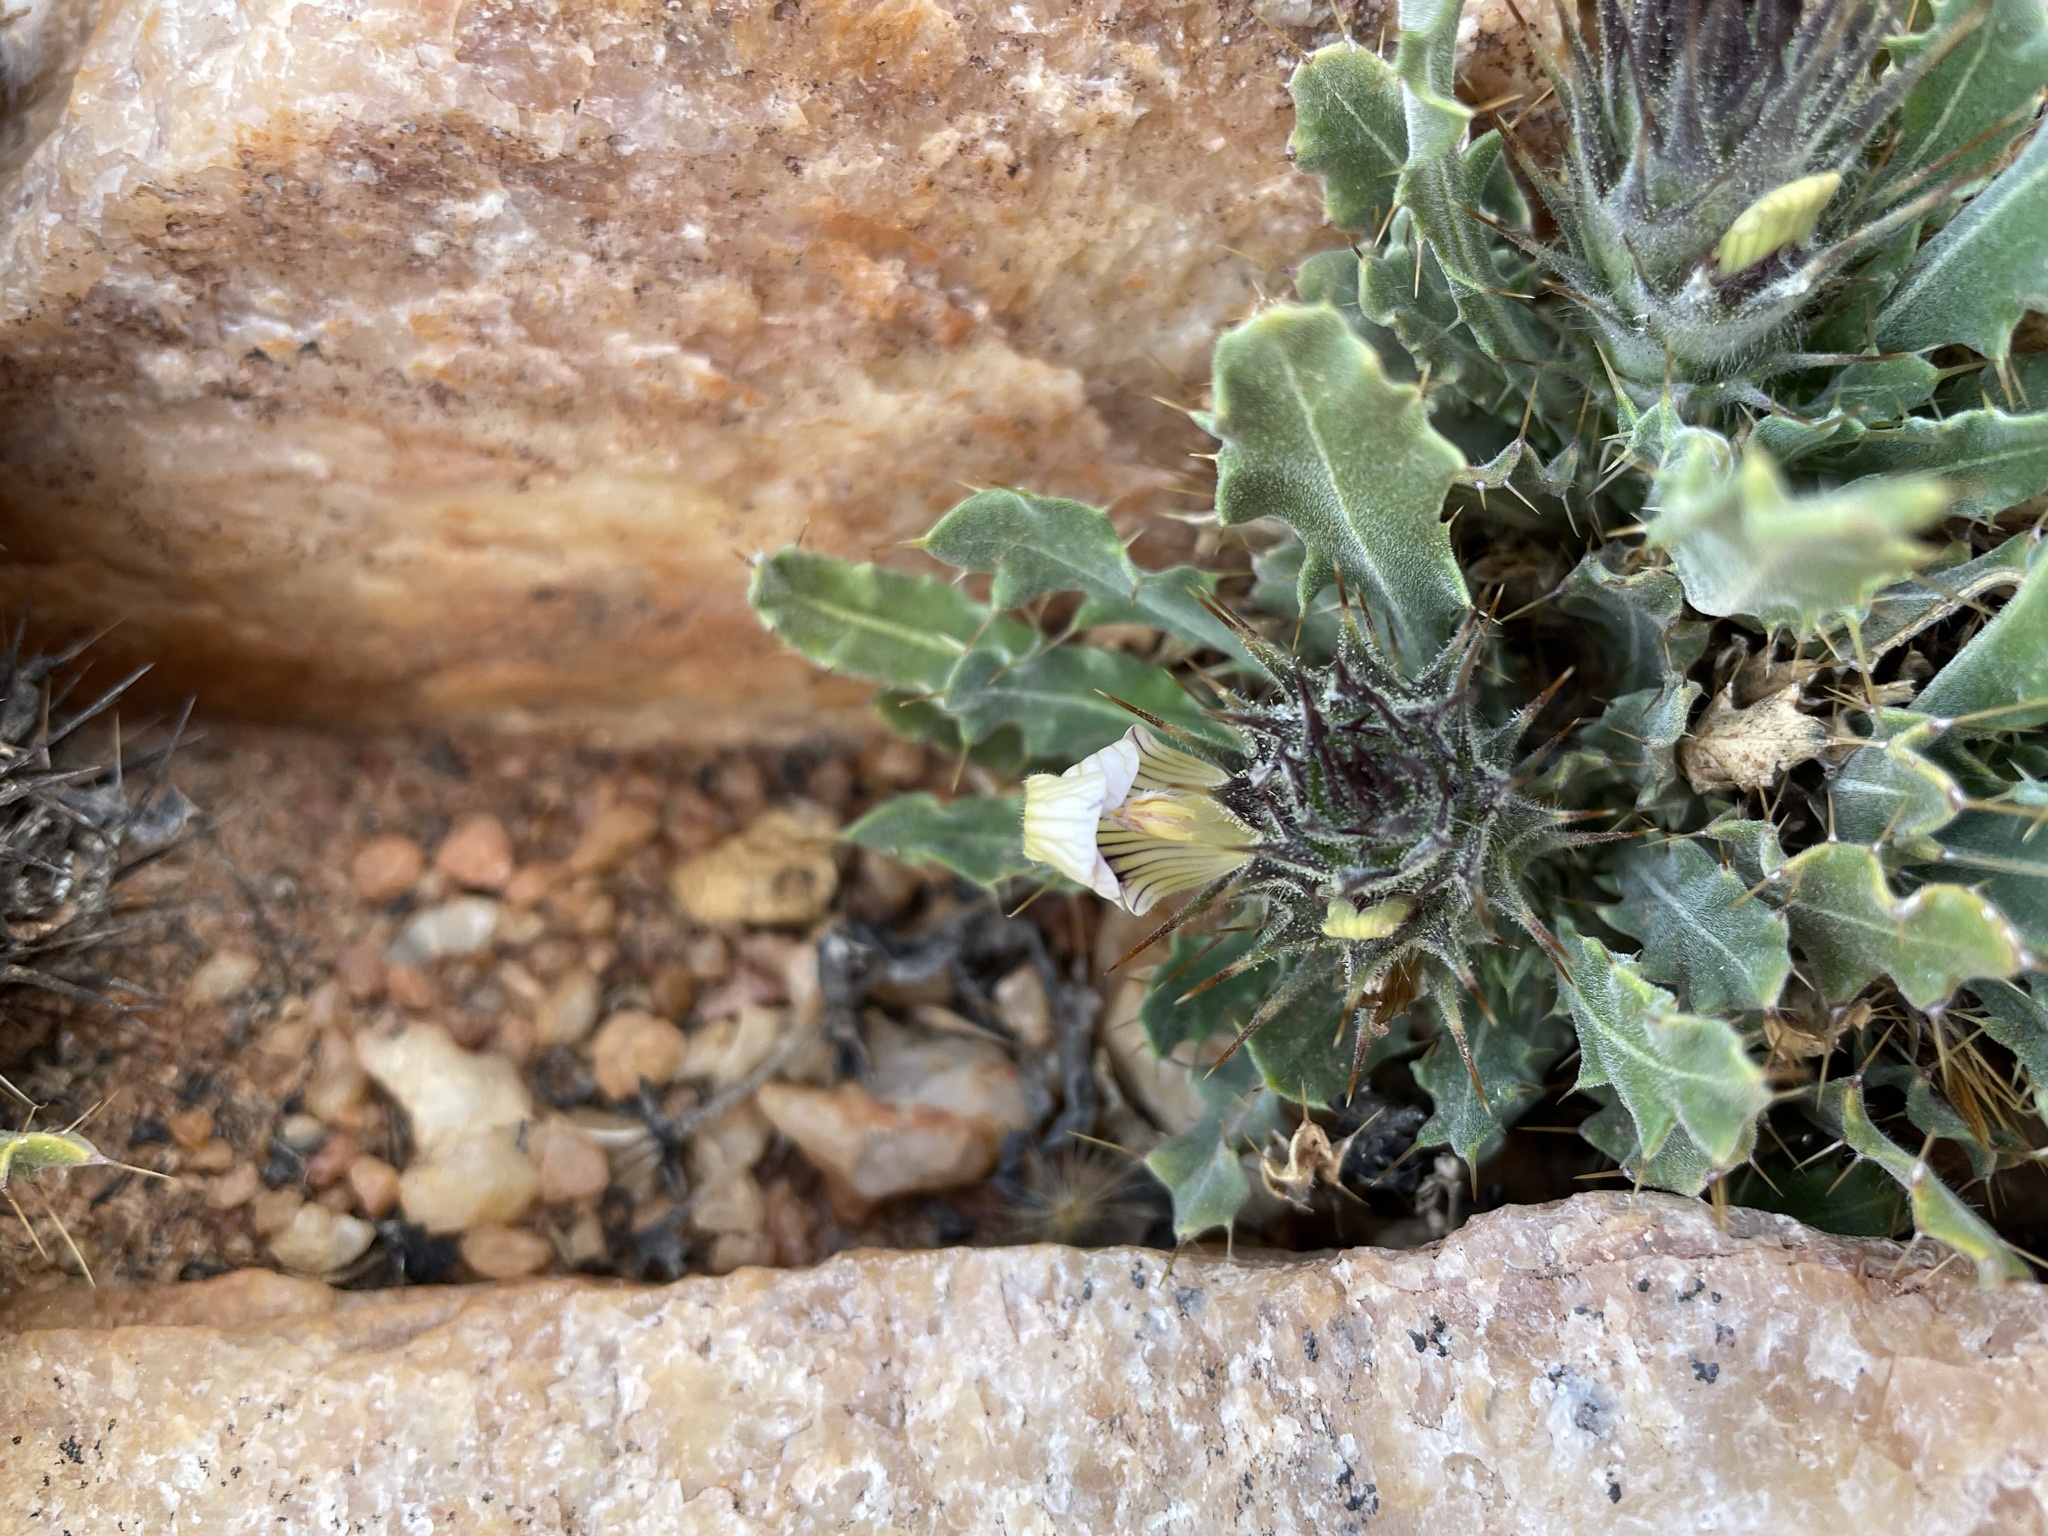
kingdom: Plantae
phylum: Tracheophyta
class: Magnoliopsida
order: Lamiales
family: Acanthaceae
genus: Acanthopsis
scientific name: Acanthopsis glandulopalmata
